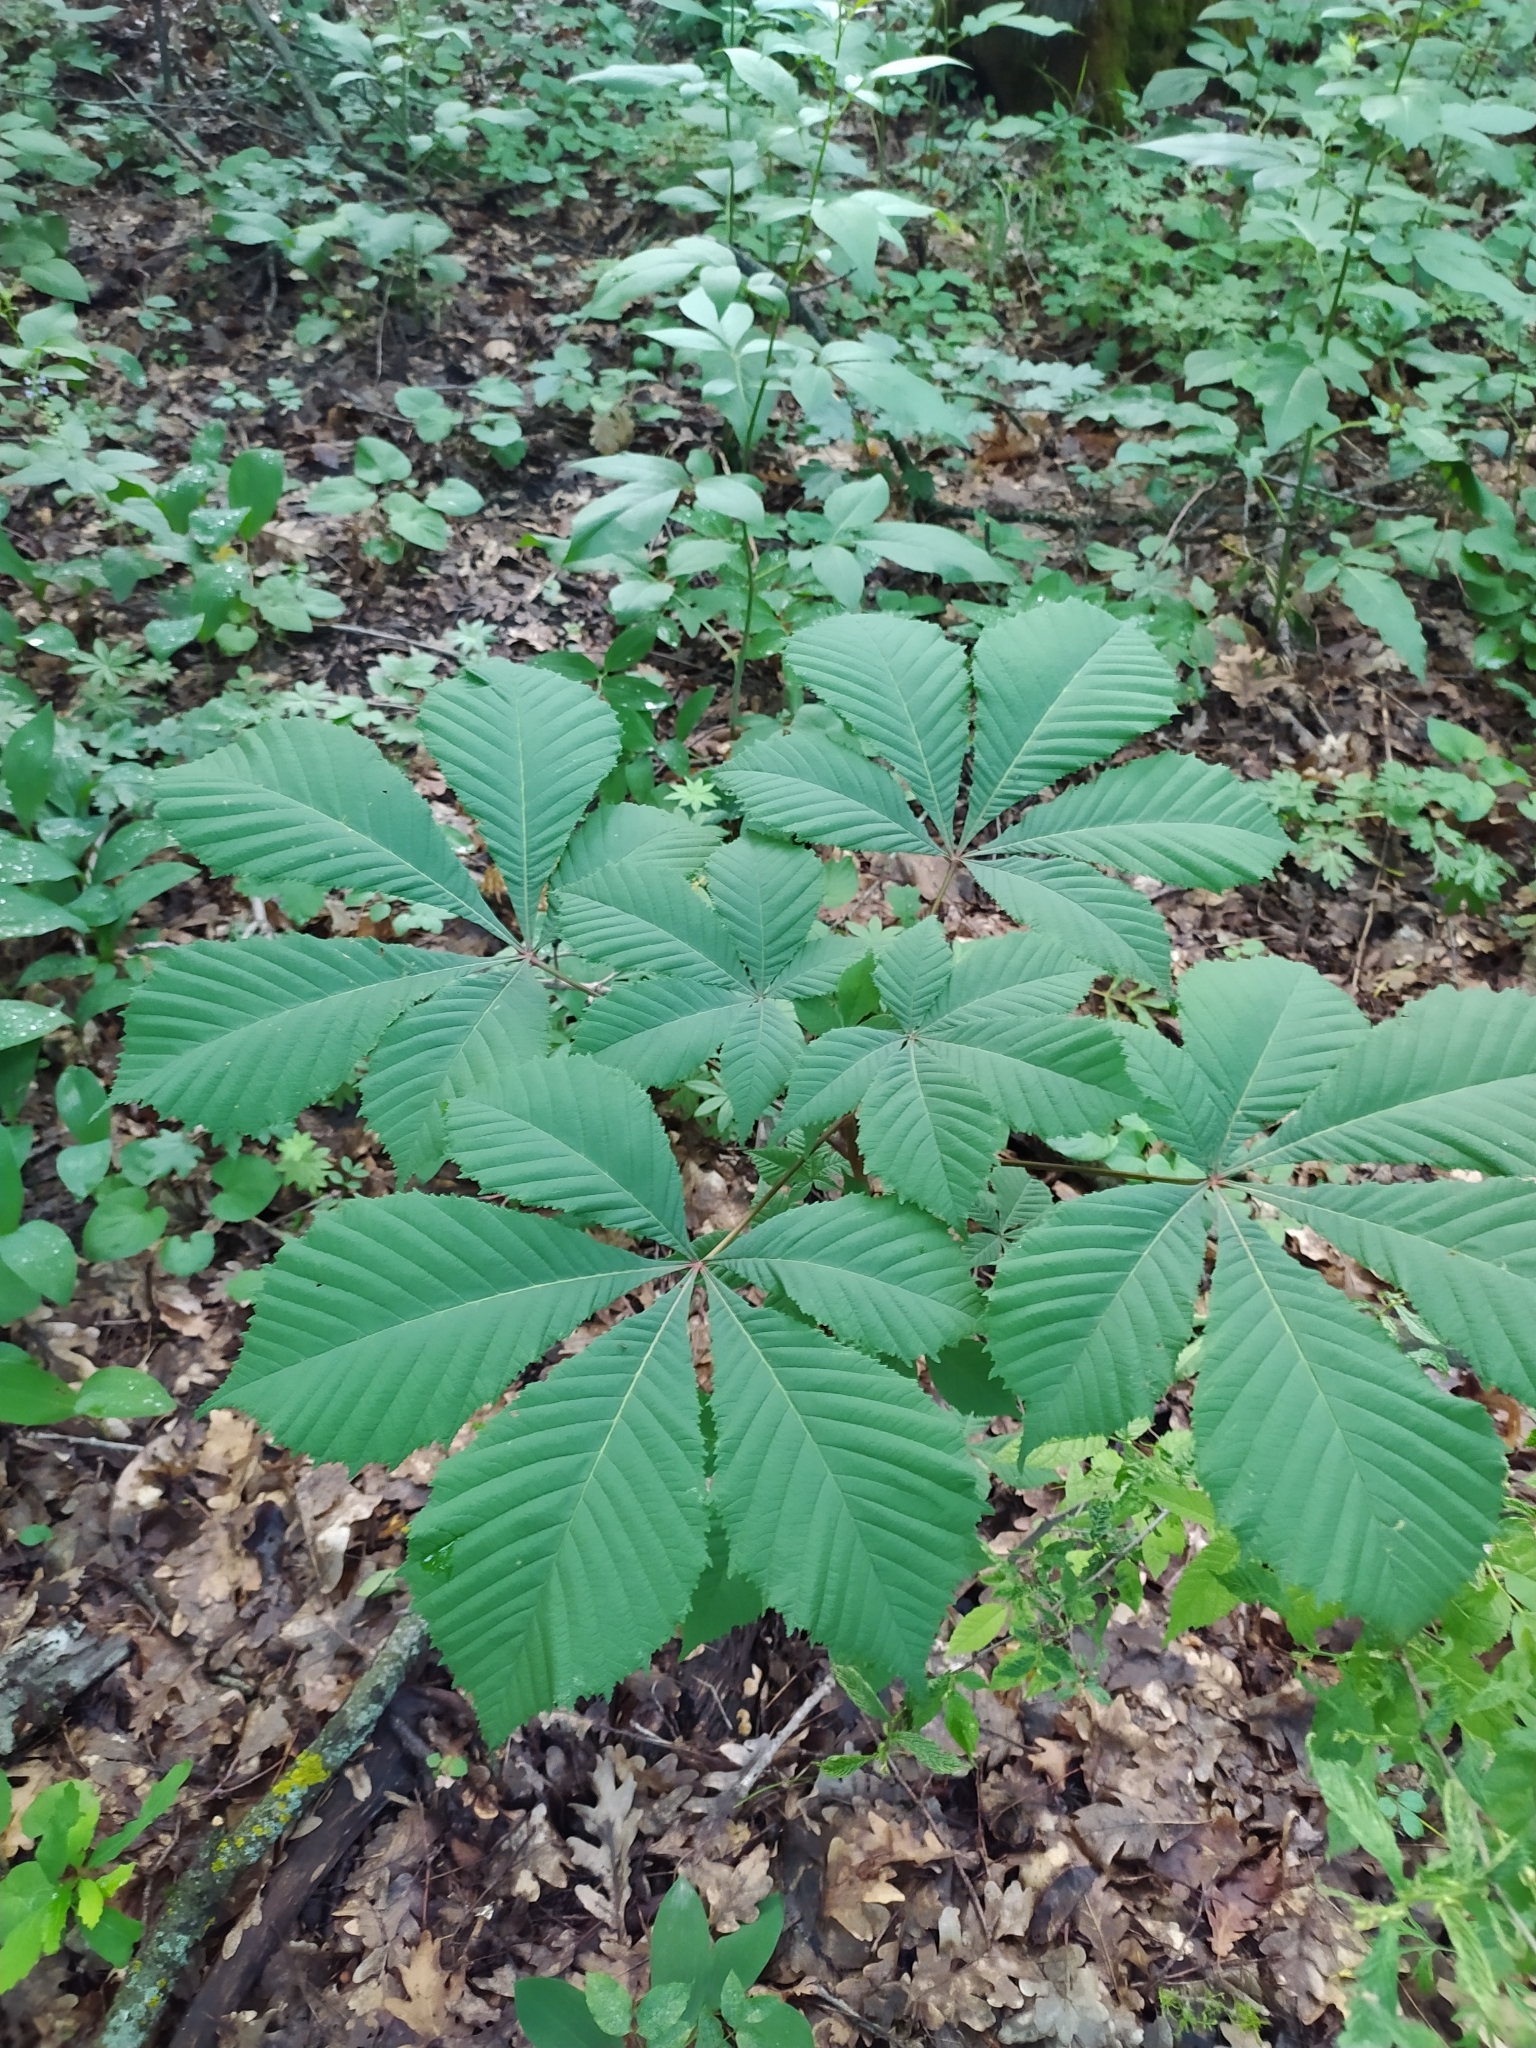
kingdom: Plantae
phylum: Tracheophyta
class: Magnoliopsida
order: Sapindales
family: Sapindaceae
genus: Aesculus
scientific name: Aesculus hippocastanum
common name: Horse-chestnut
